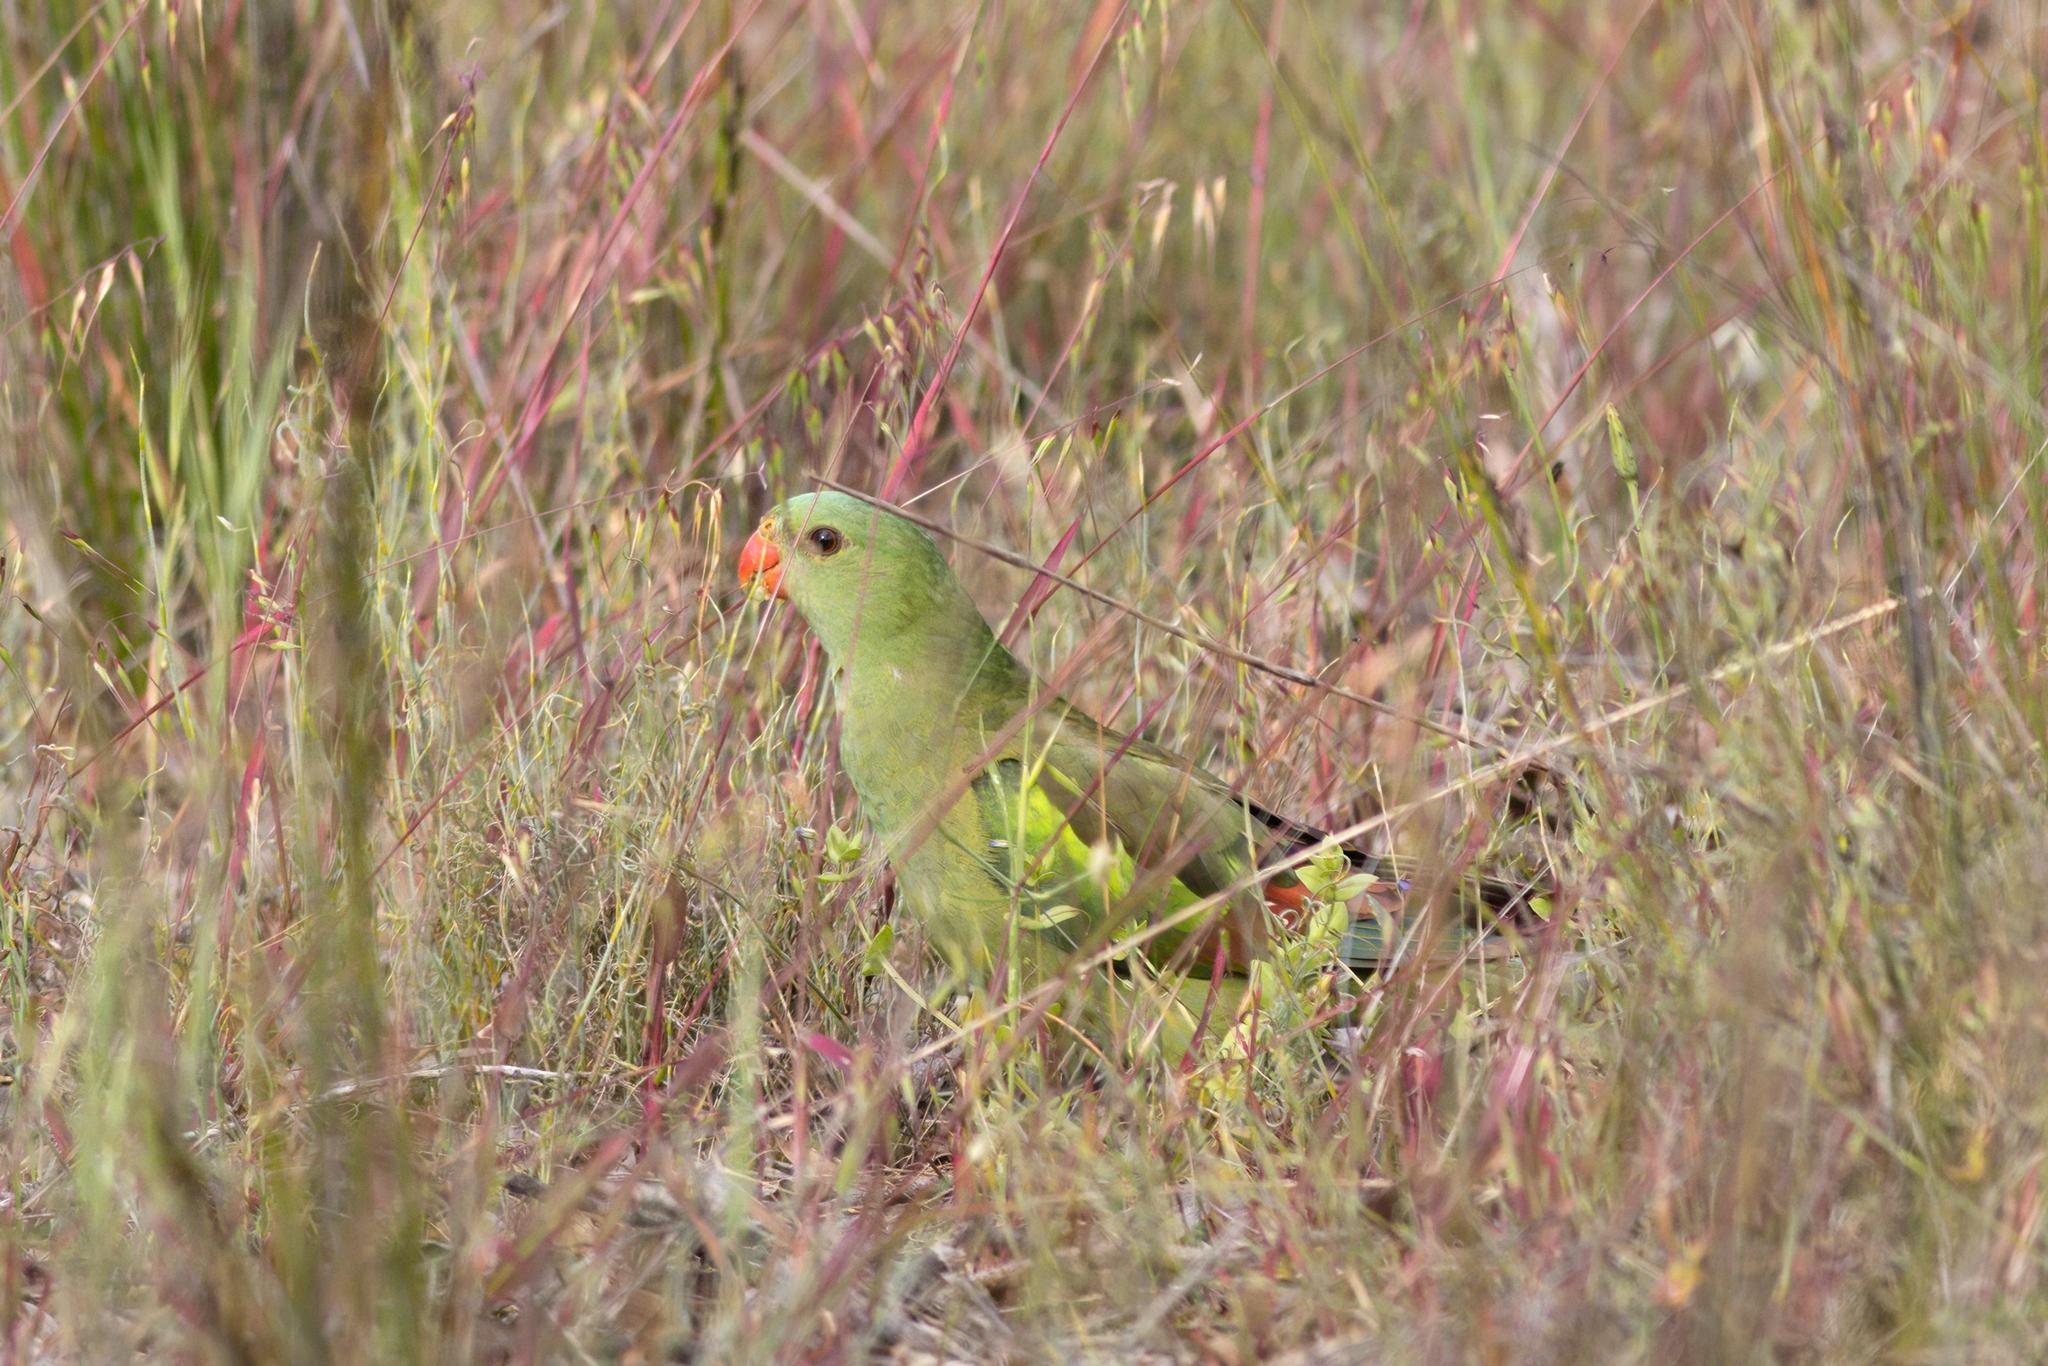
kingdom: Animalia
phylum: Chordata
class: Aves
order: Psittaciformes
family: Psittacidae
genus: Polytelis
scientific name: Polytelis anthopeplus
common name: Regent parrot
